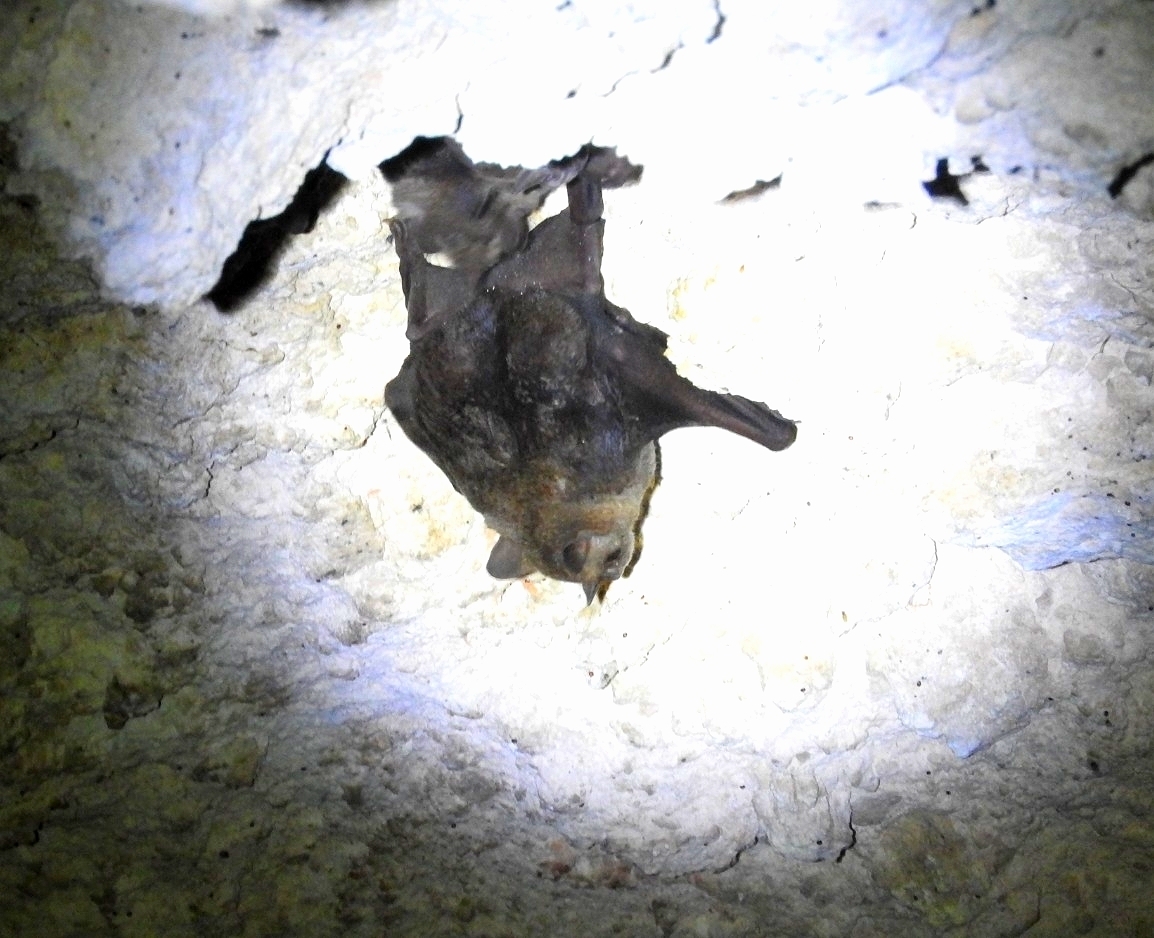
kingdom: Animalia
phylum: Chordata
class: Mammalia
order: Chiroptera
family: Phyllostomidae
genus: Artibeus
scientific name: Artibeus jamaicensis
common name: Jamaican fruit-eating bat
